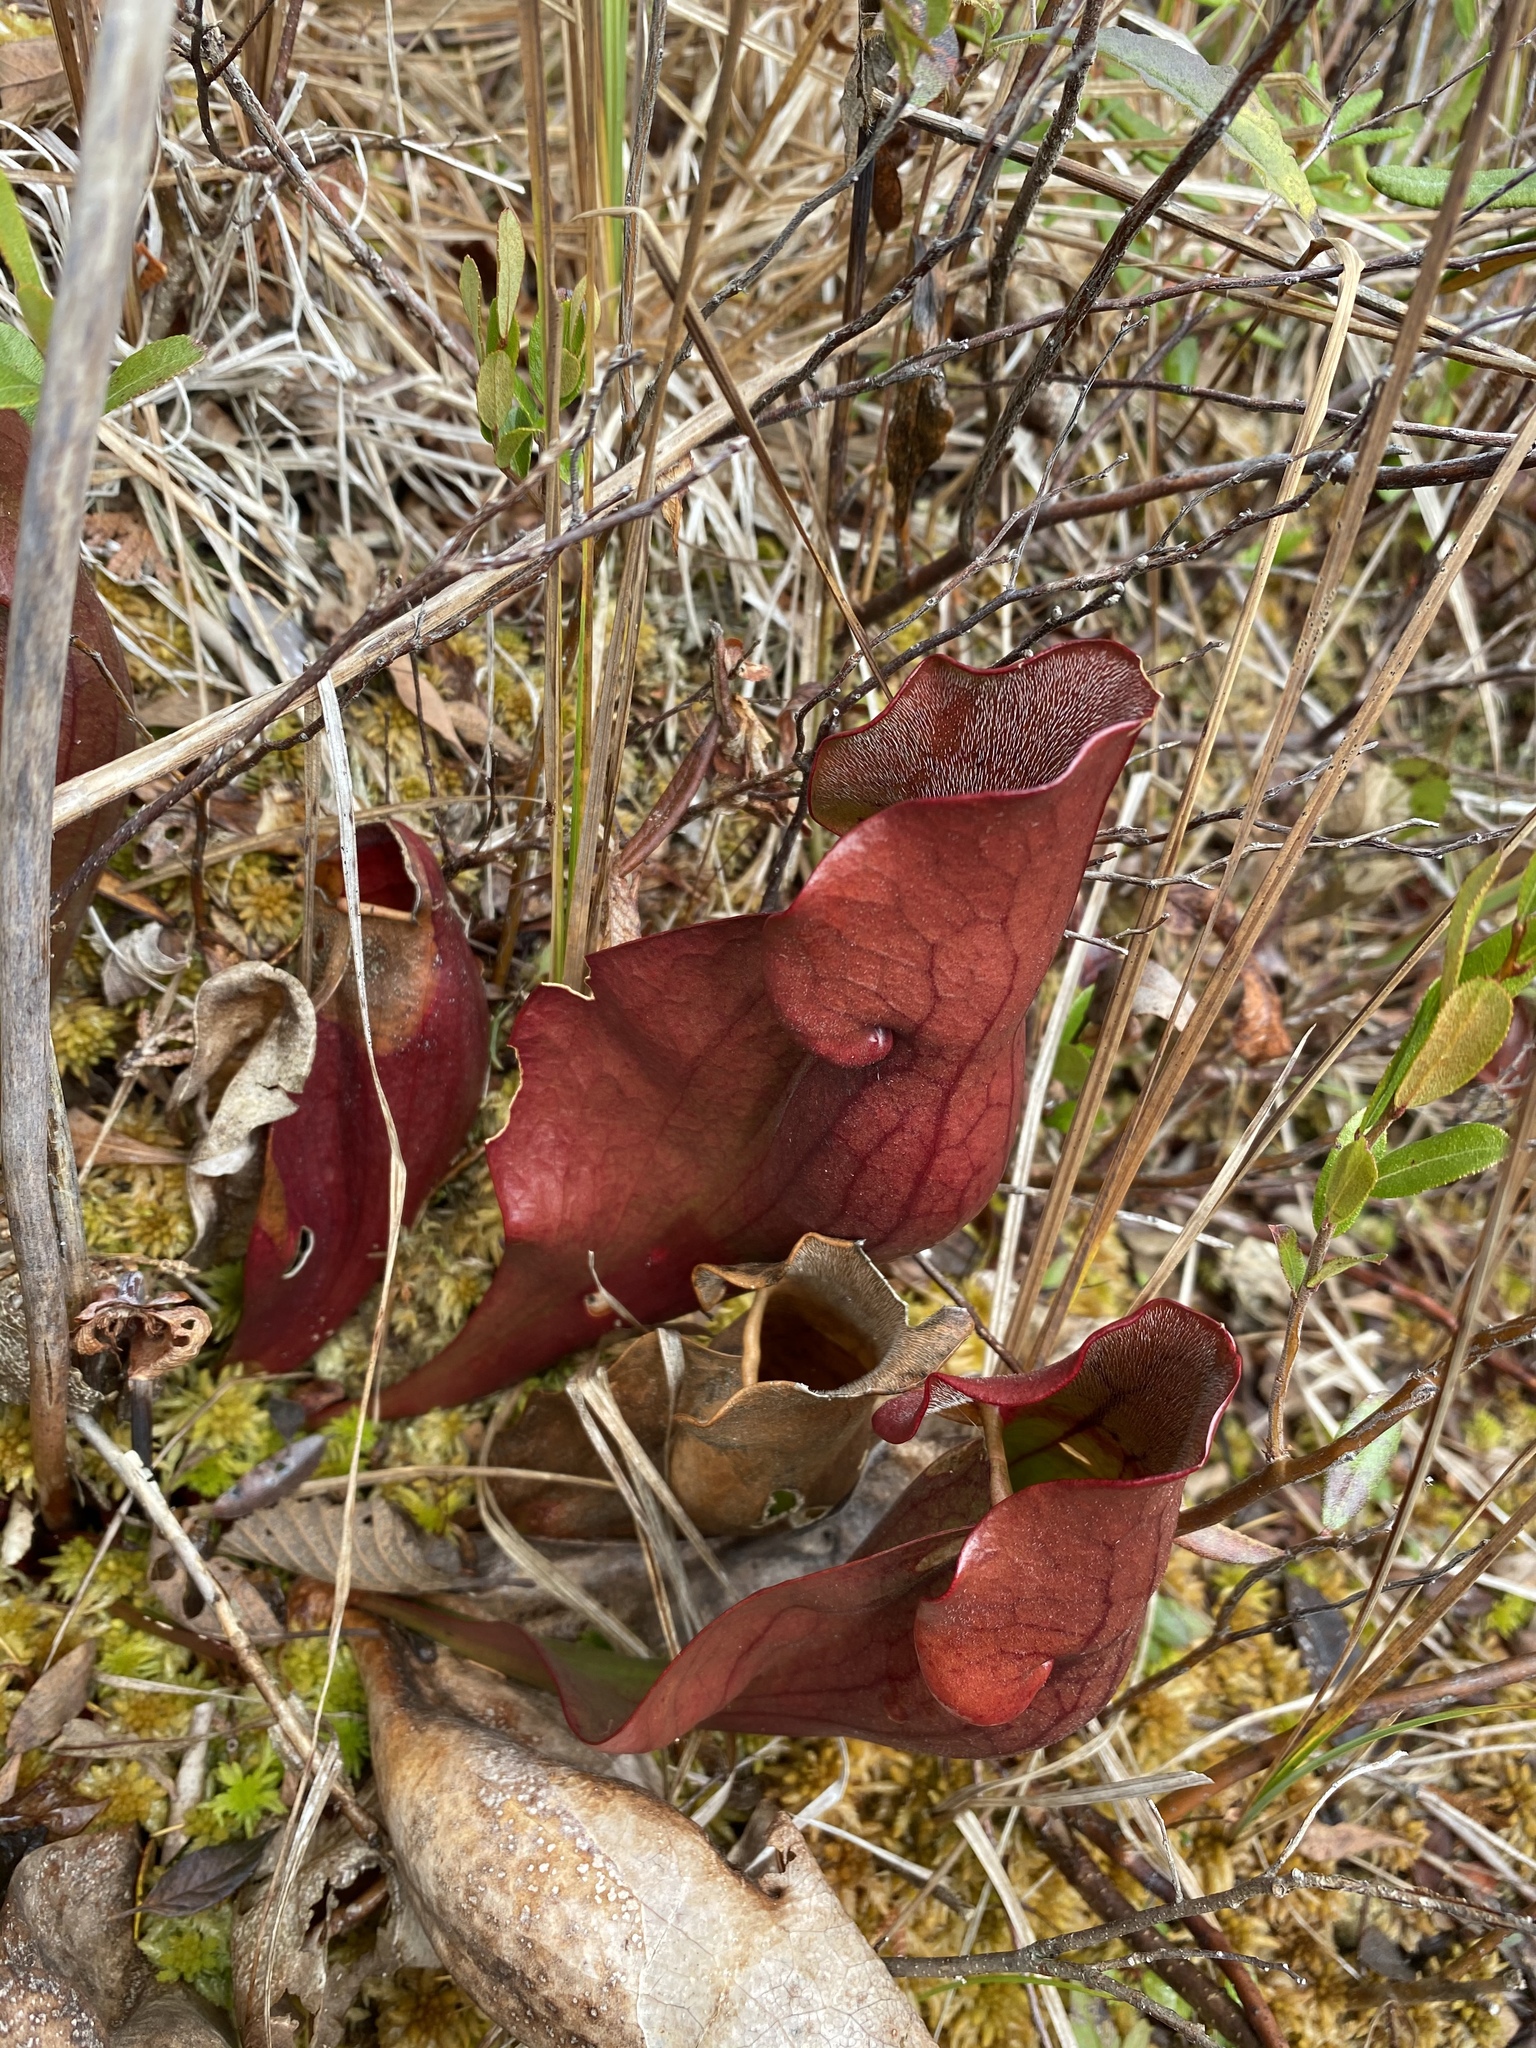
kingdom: Plantae
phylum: Tracheophyta
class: Magnoliopsida
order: Ericales
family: Sarraceniaceae
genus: Sarracenia
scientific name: Sarracenia purpurea
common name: Pitcherplant
